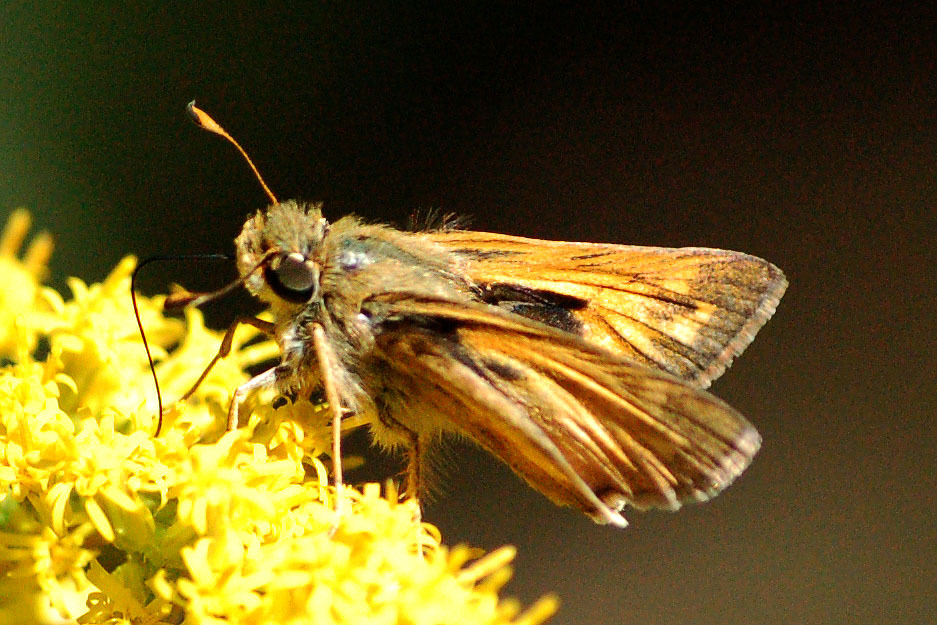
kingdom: Animalia
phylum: Arthropoda
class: Insecta
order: Lepidoptera
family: Hesperiidae
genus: Atalopedes
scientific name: Atalopedes
